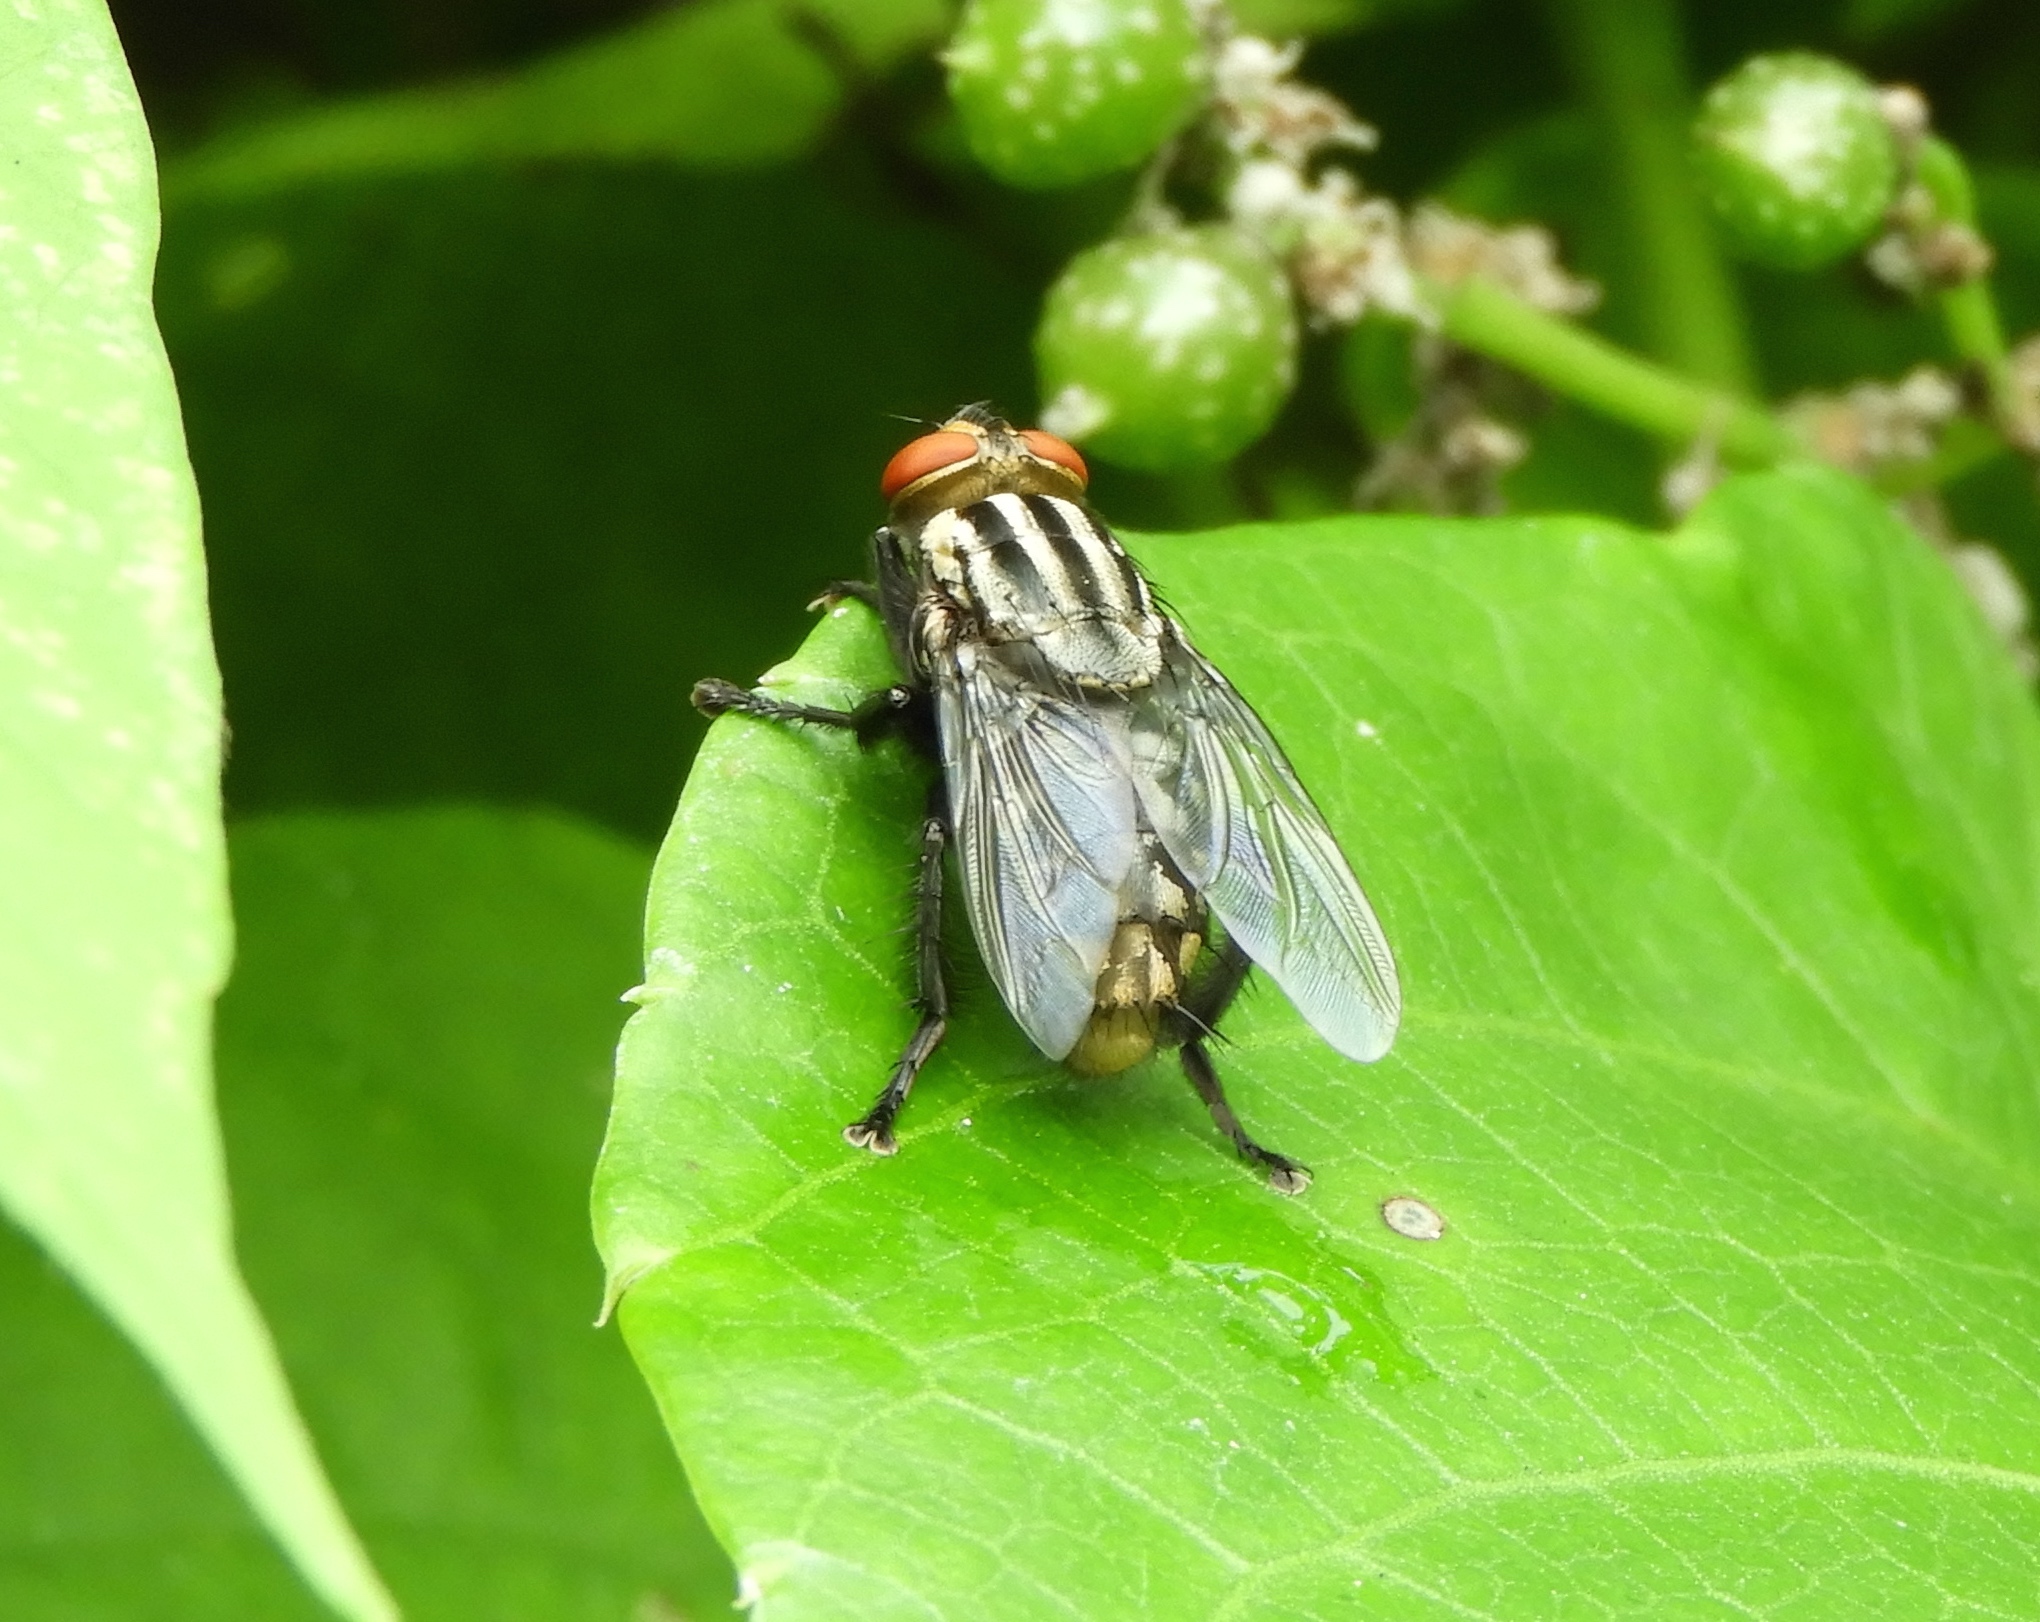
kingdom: Animalia
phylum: Arthropoda
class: Insecta
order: Diptera
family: Sarcophagidae
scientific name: Sarcophagidae
